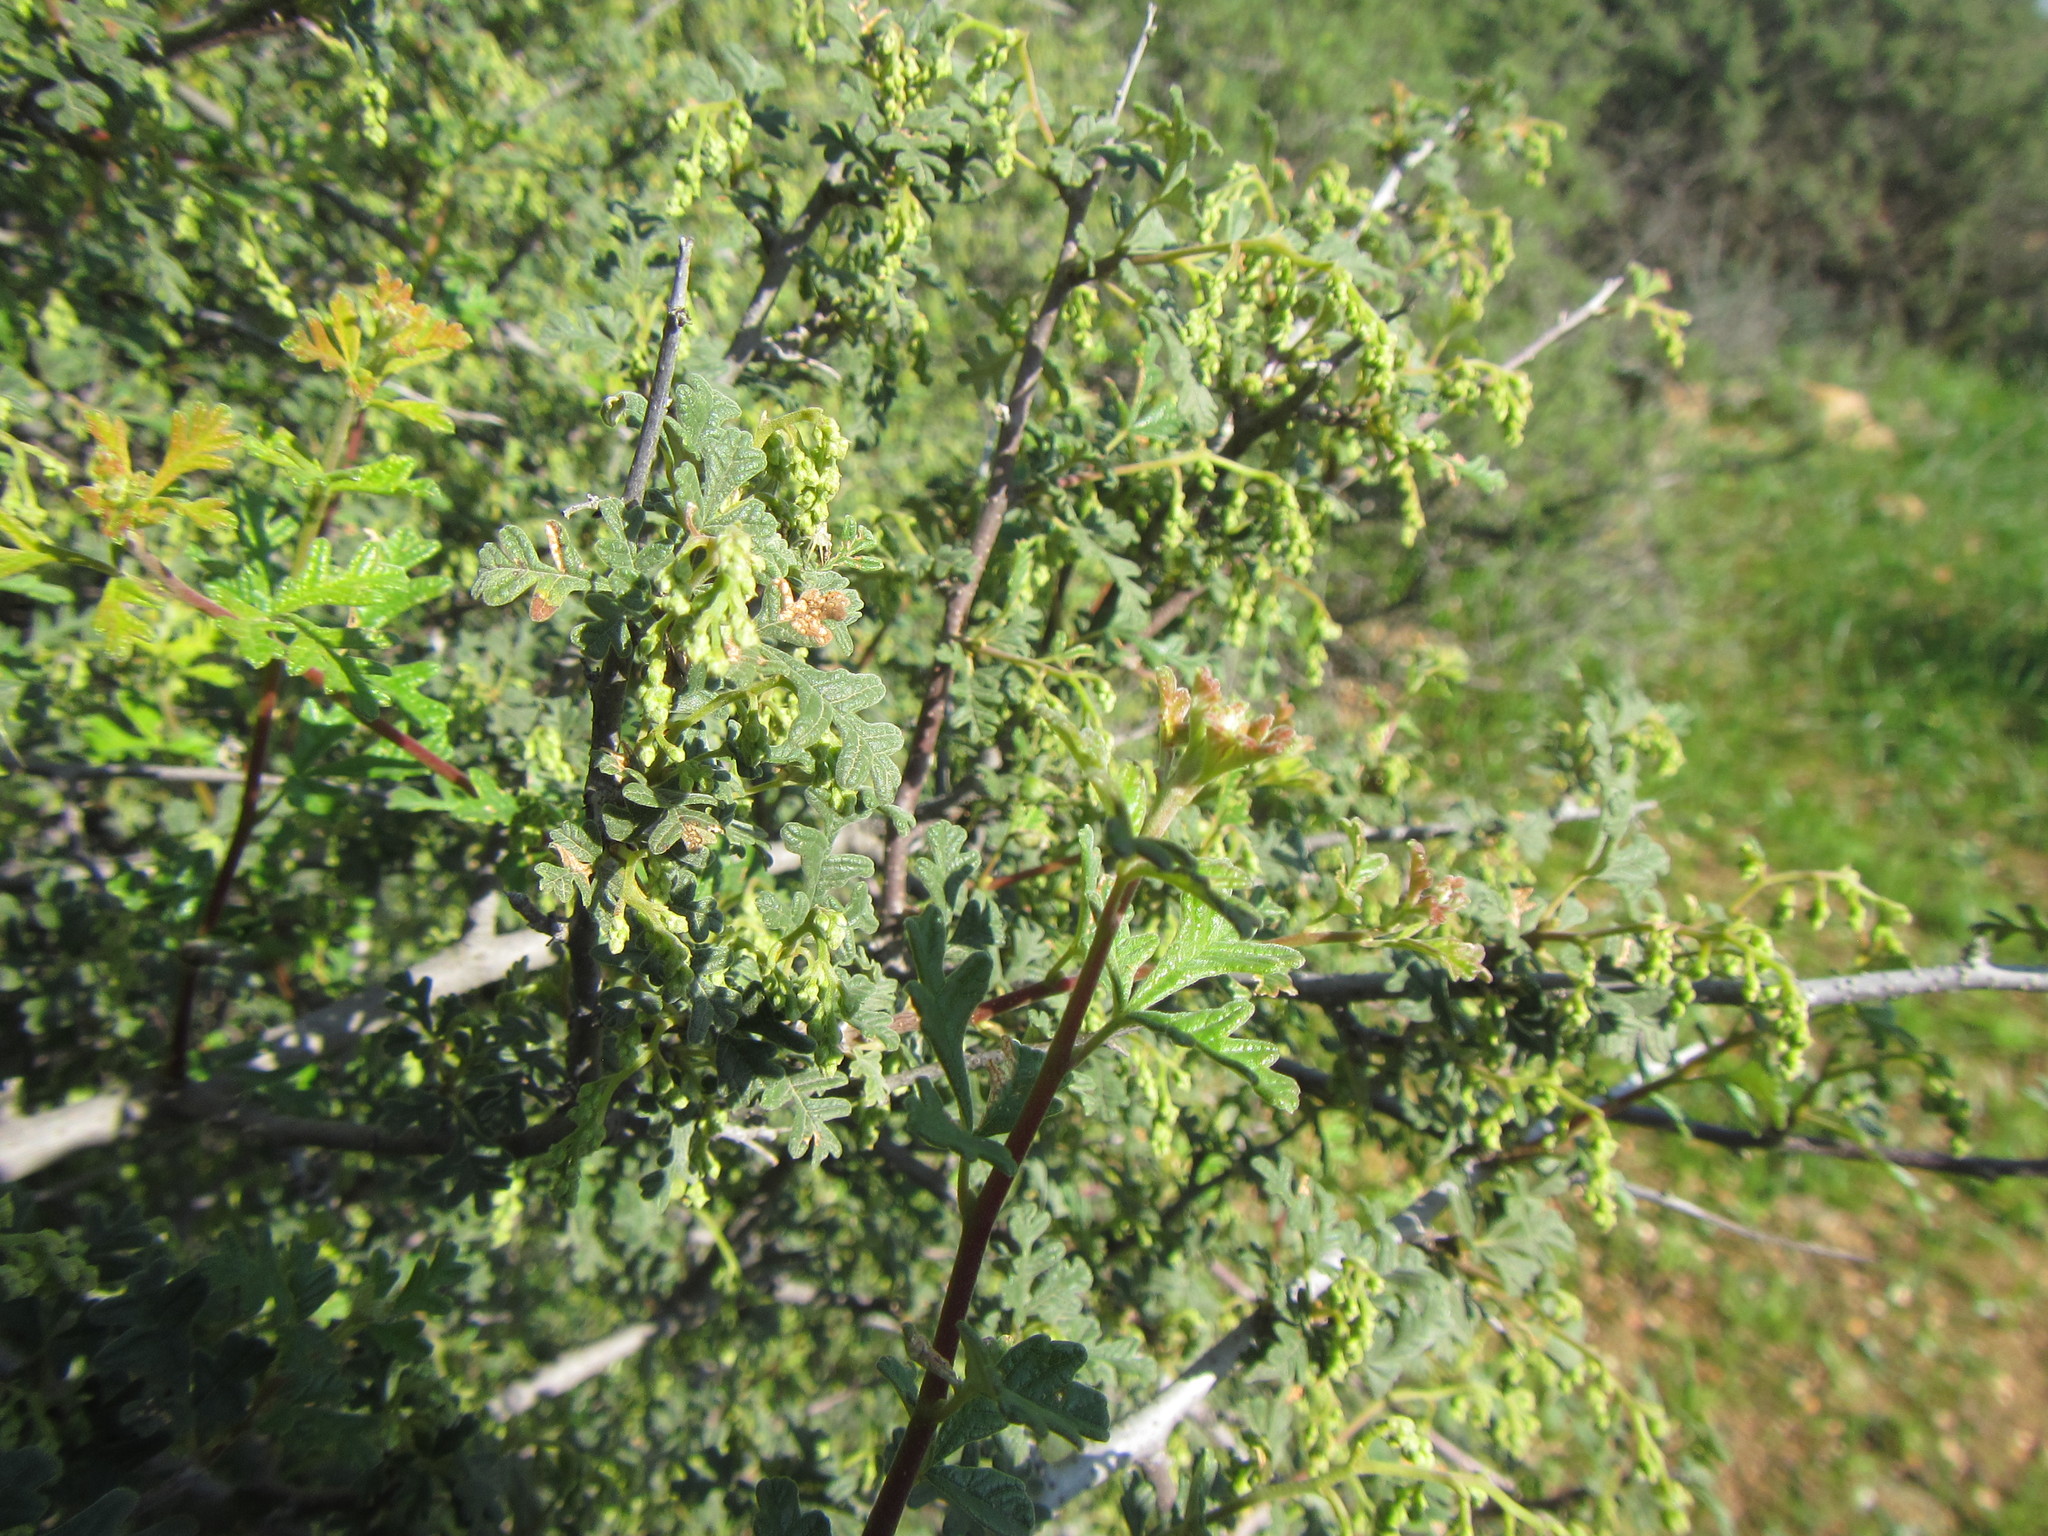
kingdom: Plantae
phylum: Tracheophyta
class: Magnoliopsida
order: Sapindales
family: Anacardiaceae
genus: Searsia
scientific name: Searsia incisa
